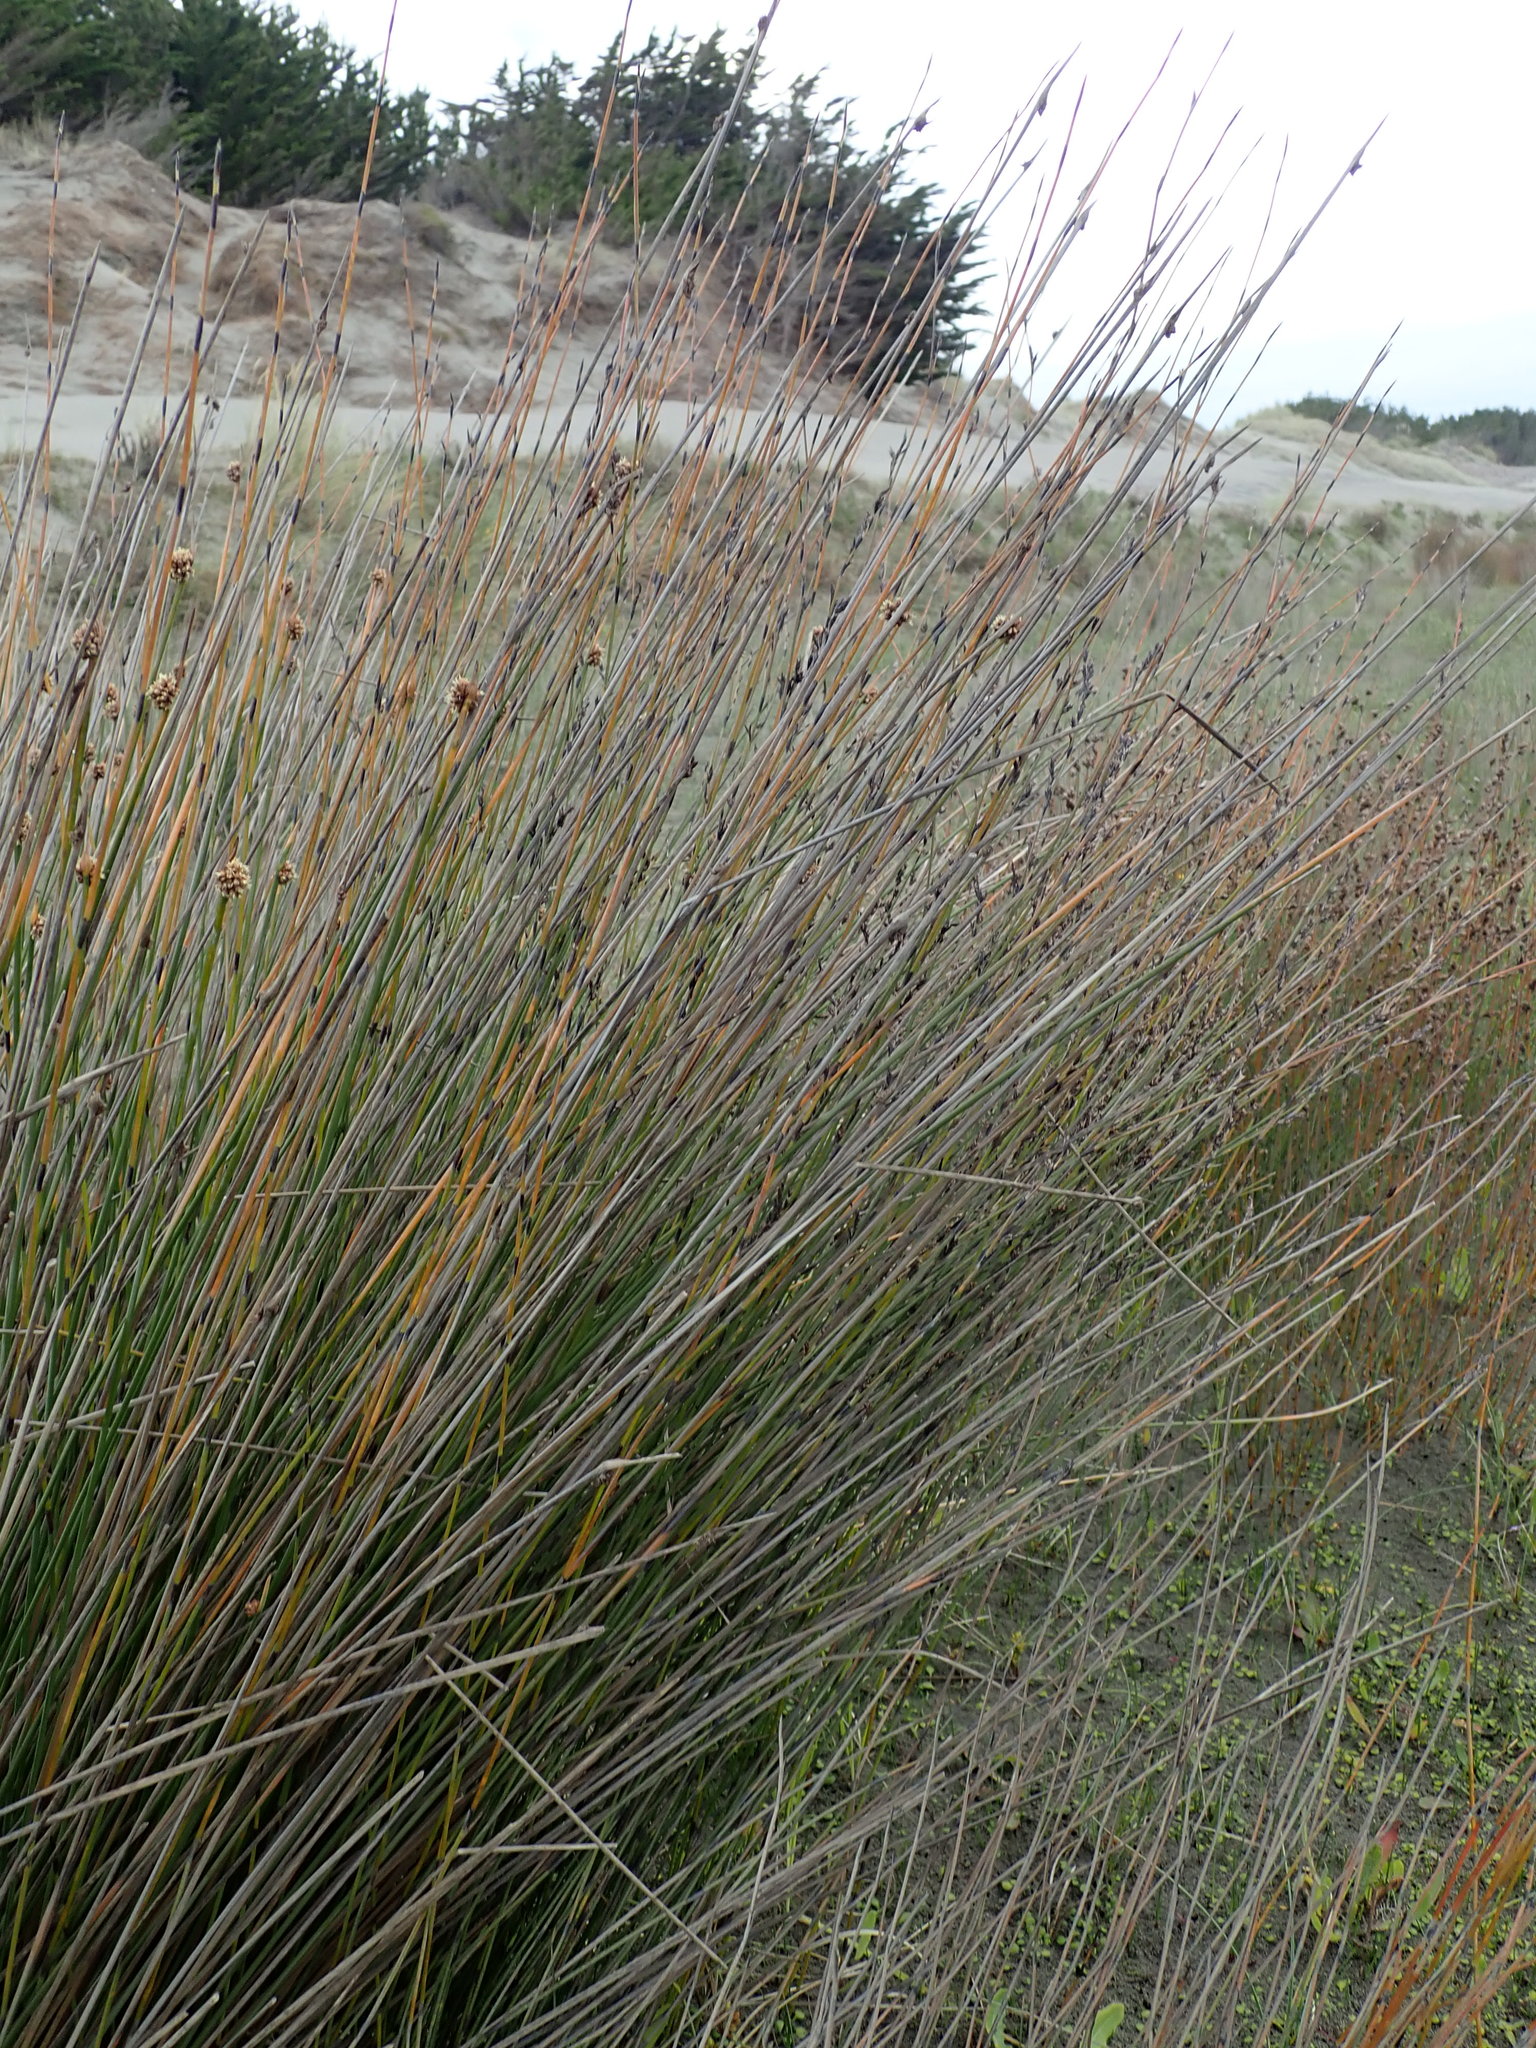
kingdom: Plantae
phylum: Tracheophyta
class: Liliopsida
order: Poales
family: Cyperaceae
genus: Ficinia
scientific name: Ficinia nodosa
